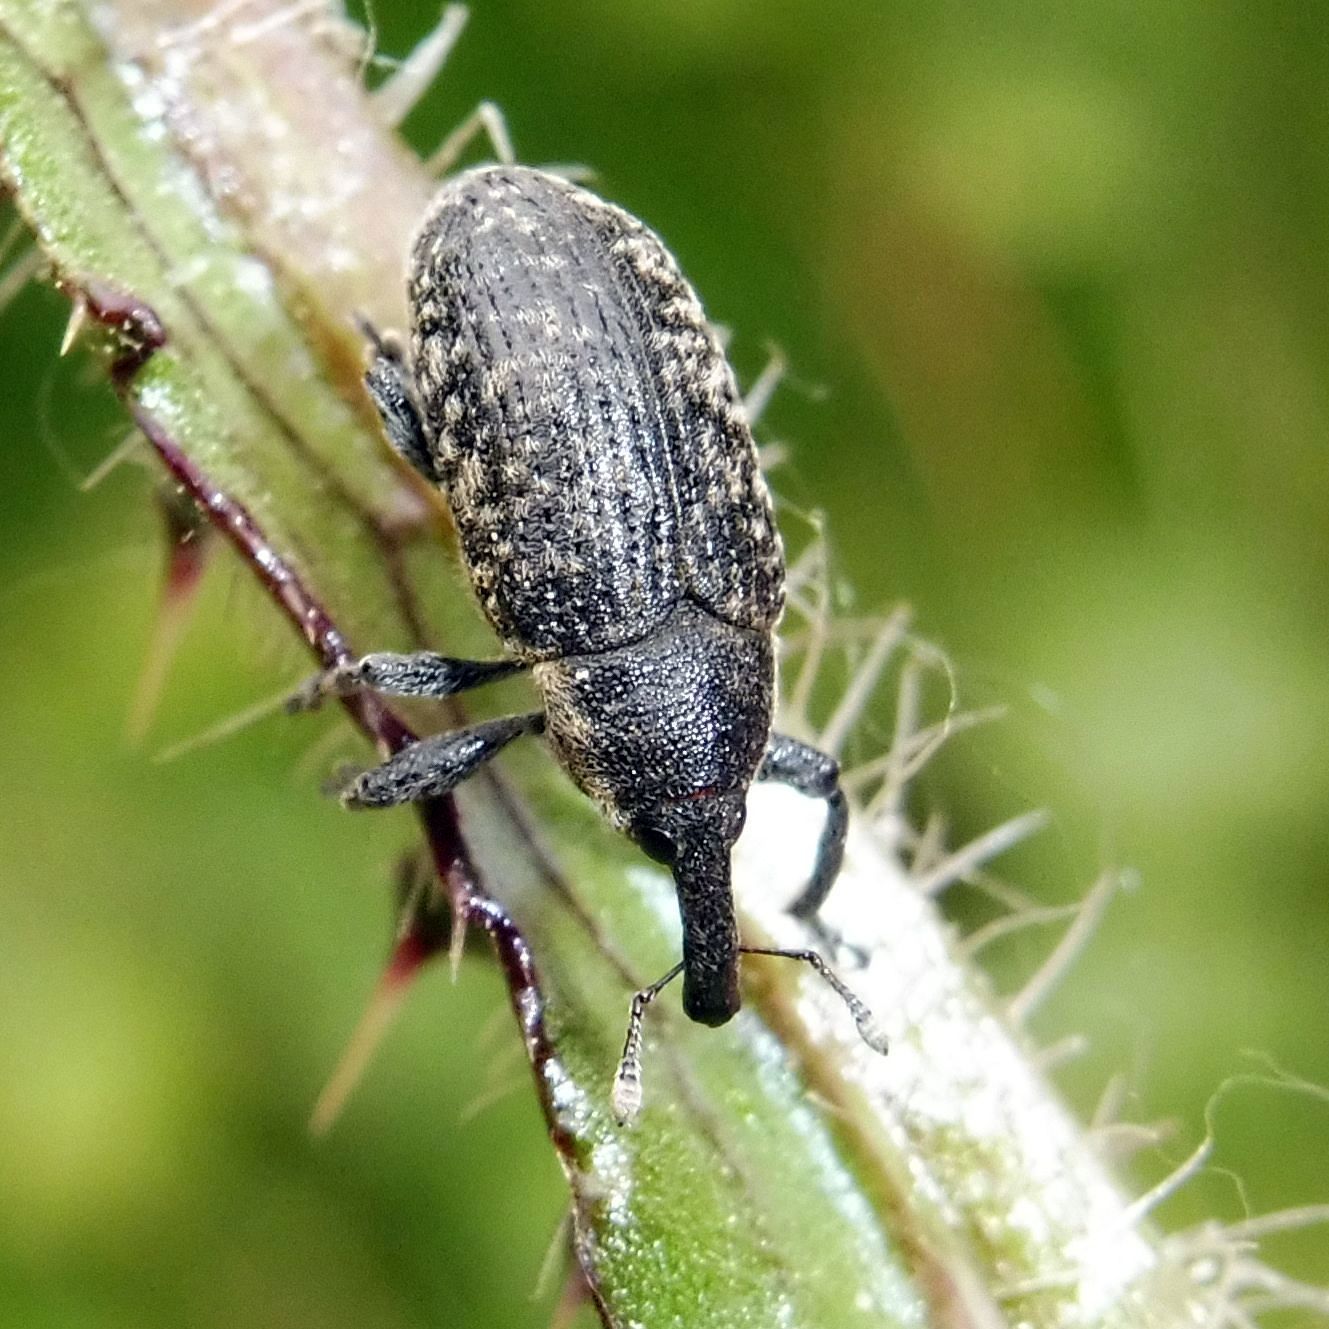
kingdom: Animalia
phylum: Arthropoda
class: Insecta
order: Coleoptera
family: Curculionidae
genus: Larinus
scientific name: Larinus carlinae
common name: Weevil
